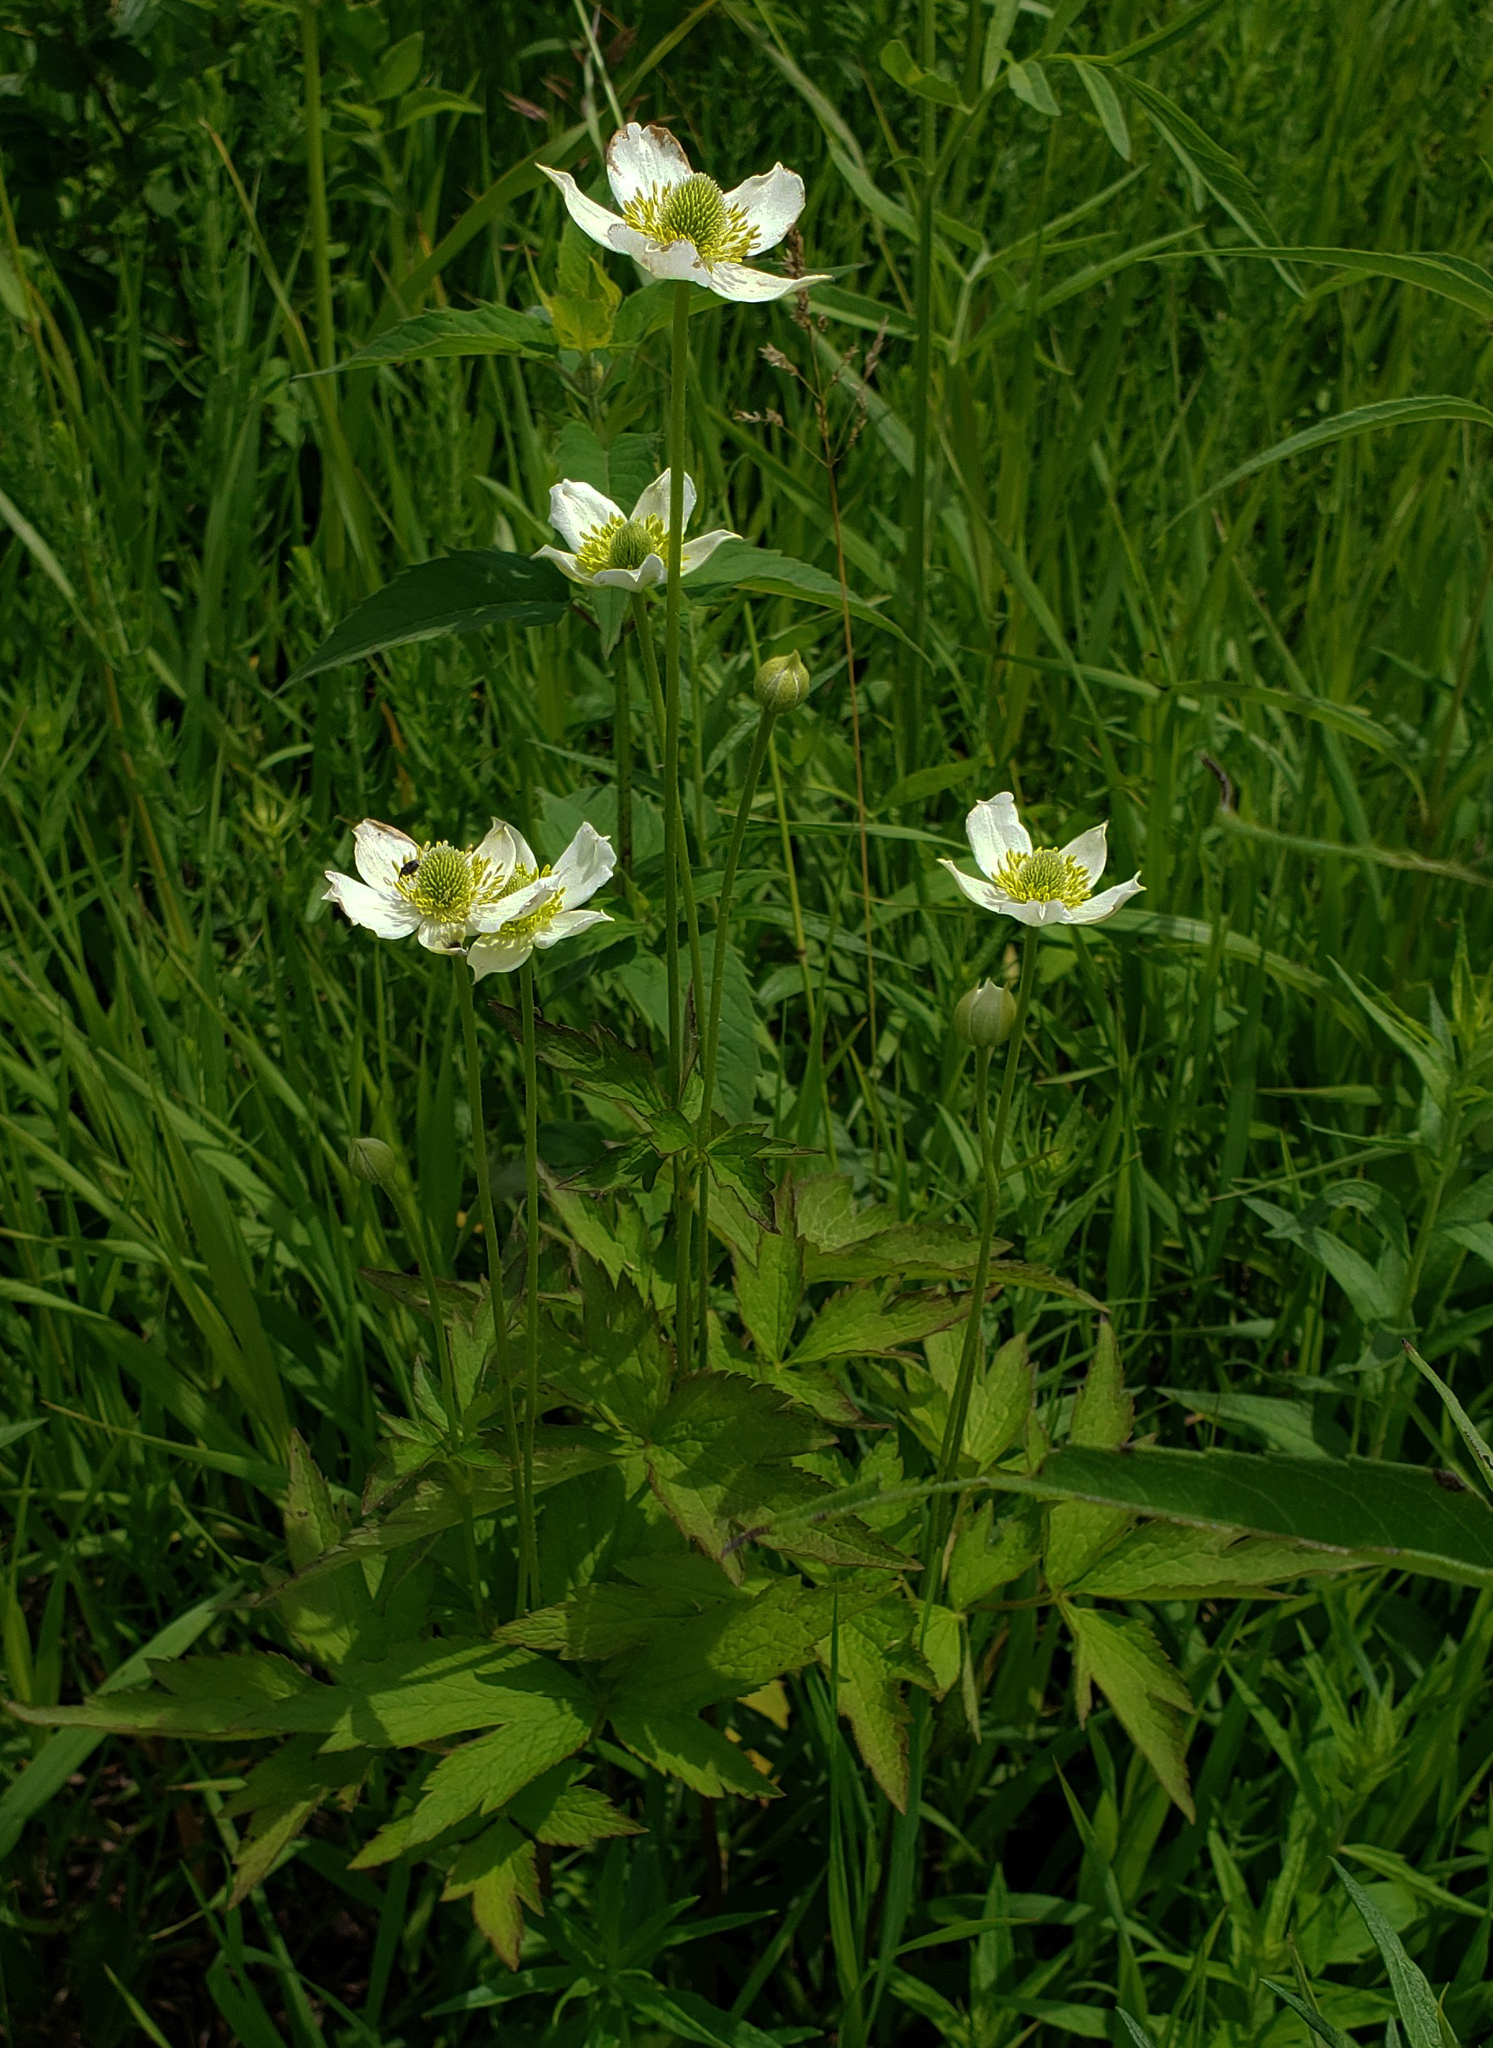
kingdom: Plantae
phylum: Tracheophyta
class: Magnoliopsida
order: Ranunculales
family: Ranunculaceae
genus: Anemone
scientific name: Anemone virginiana
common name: Tall anemone
